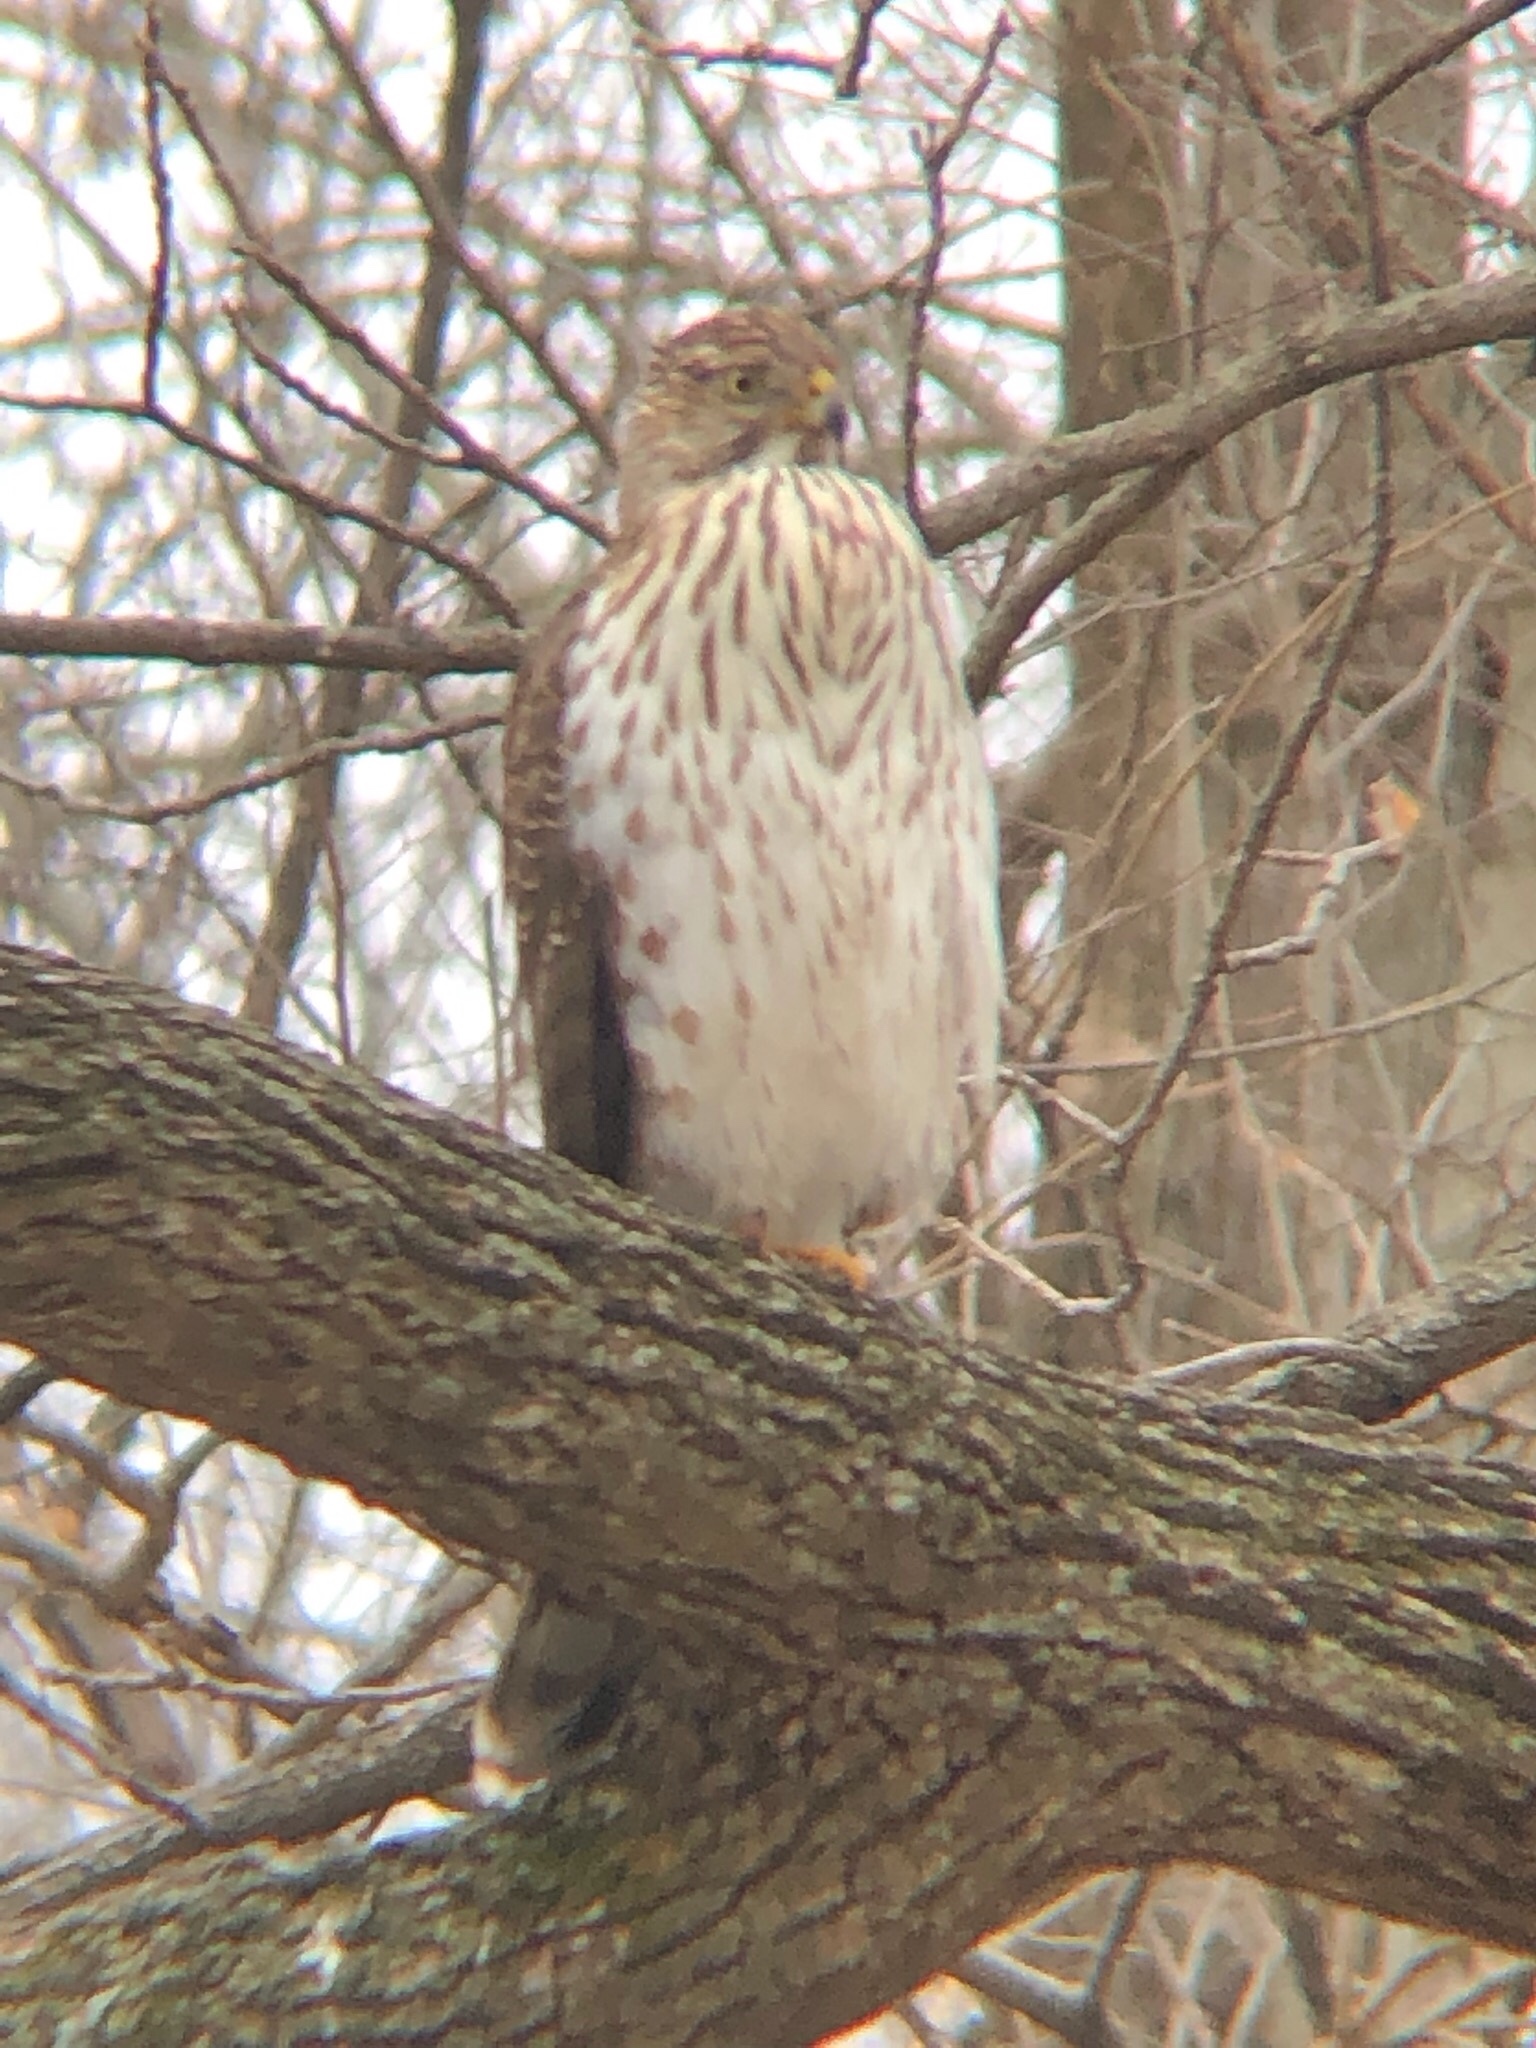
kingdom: Animalia
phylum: Chordata
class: Aves
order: Accipitriformes
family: Accipitridae
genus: Accipiter
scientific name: Accipiter cooperii
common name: Cooper's hawk
